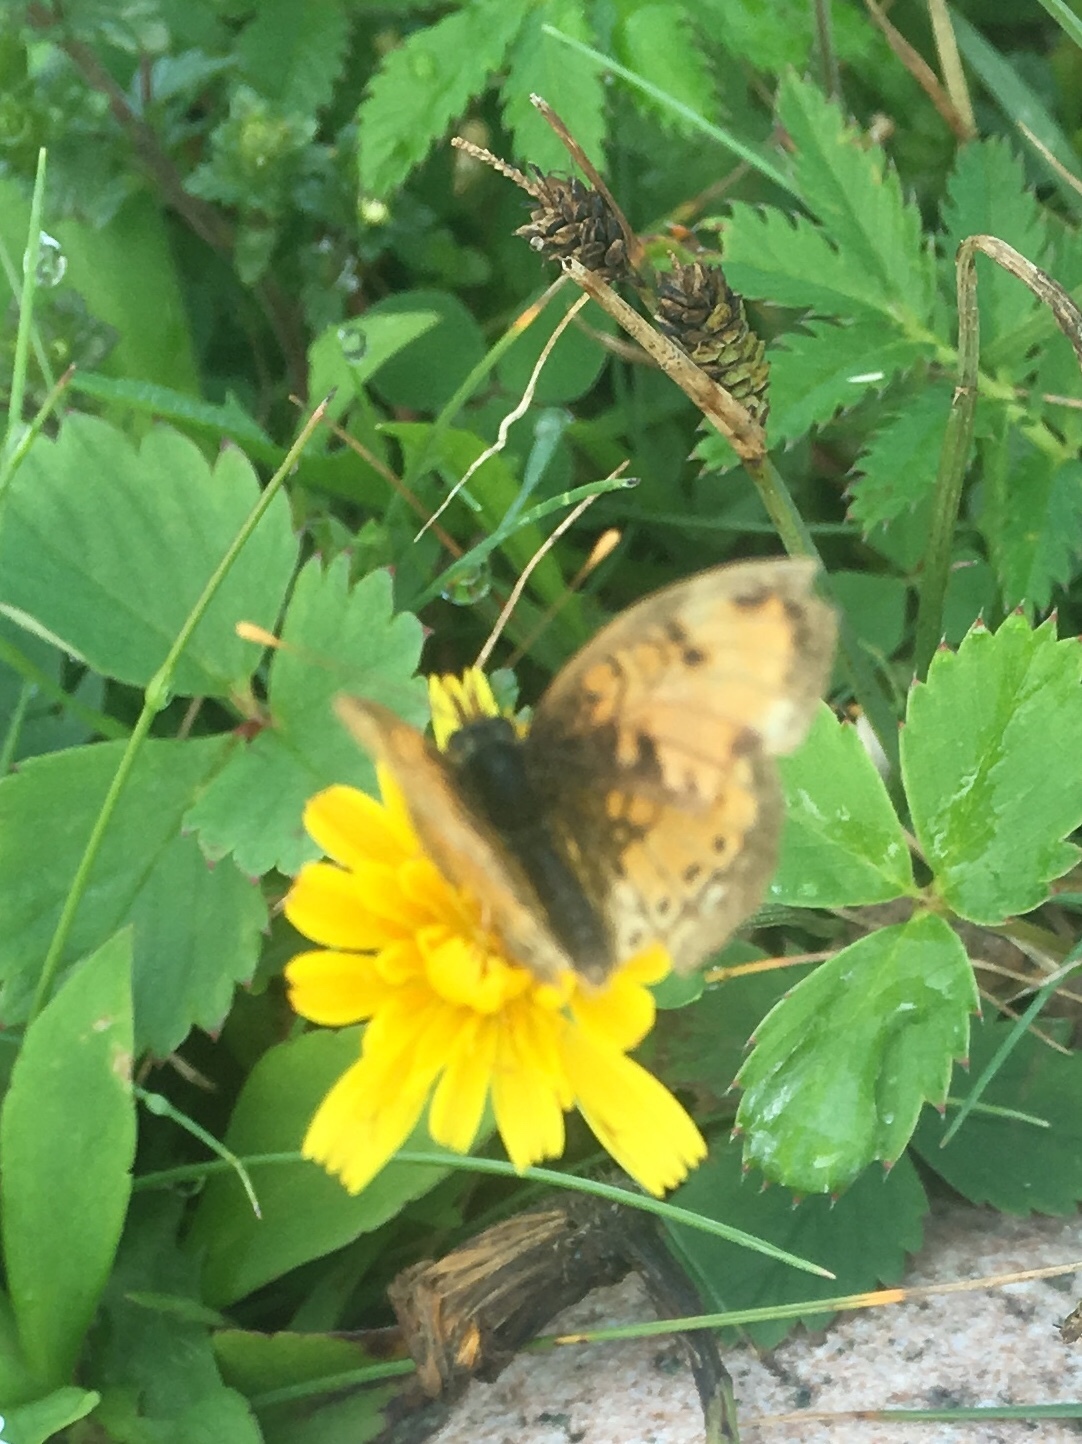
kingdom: Animalia
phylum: Arthropoda
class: Insecta
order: Lepidoptera
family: Nymphalidae
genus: Phyciodes
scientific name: Phyciodes tharos
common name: Pearl crescent
